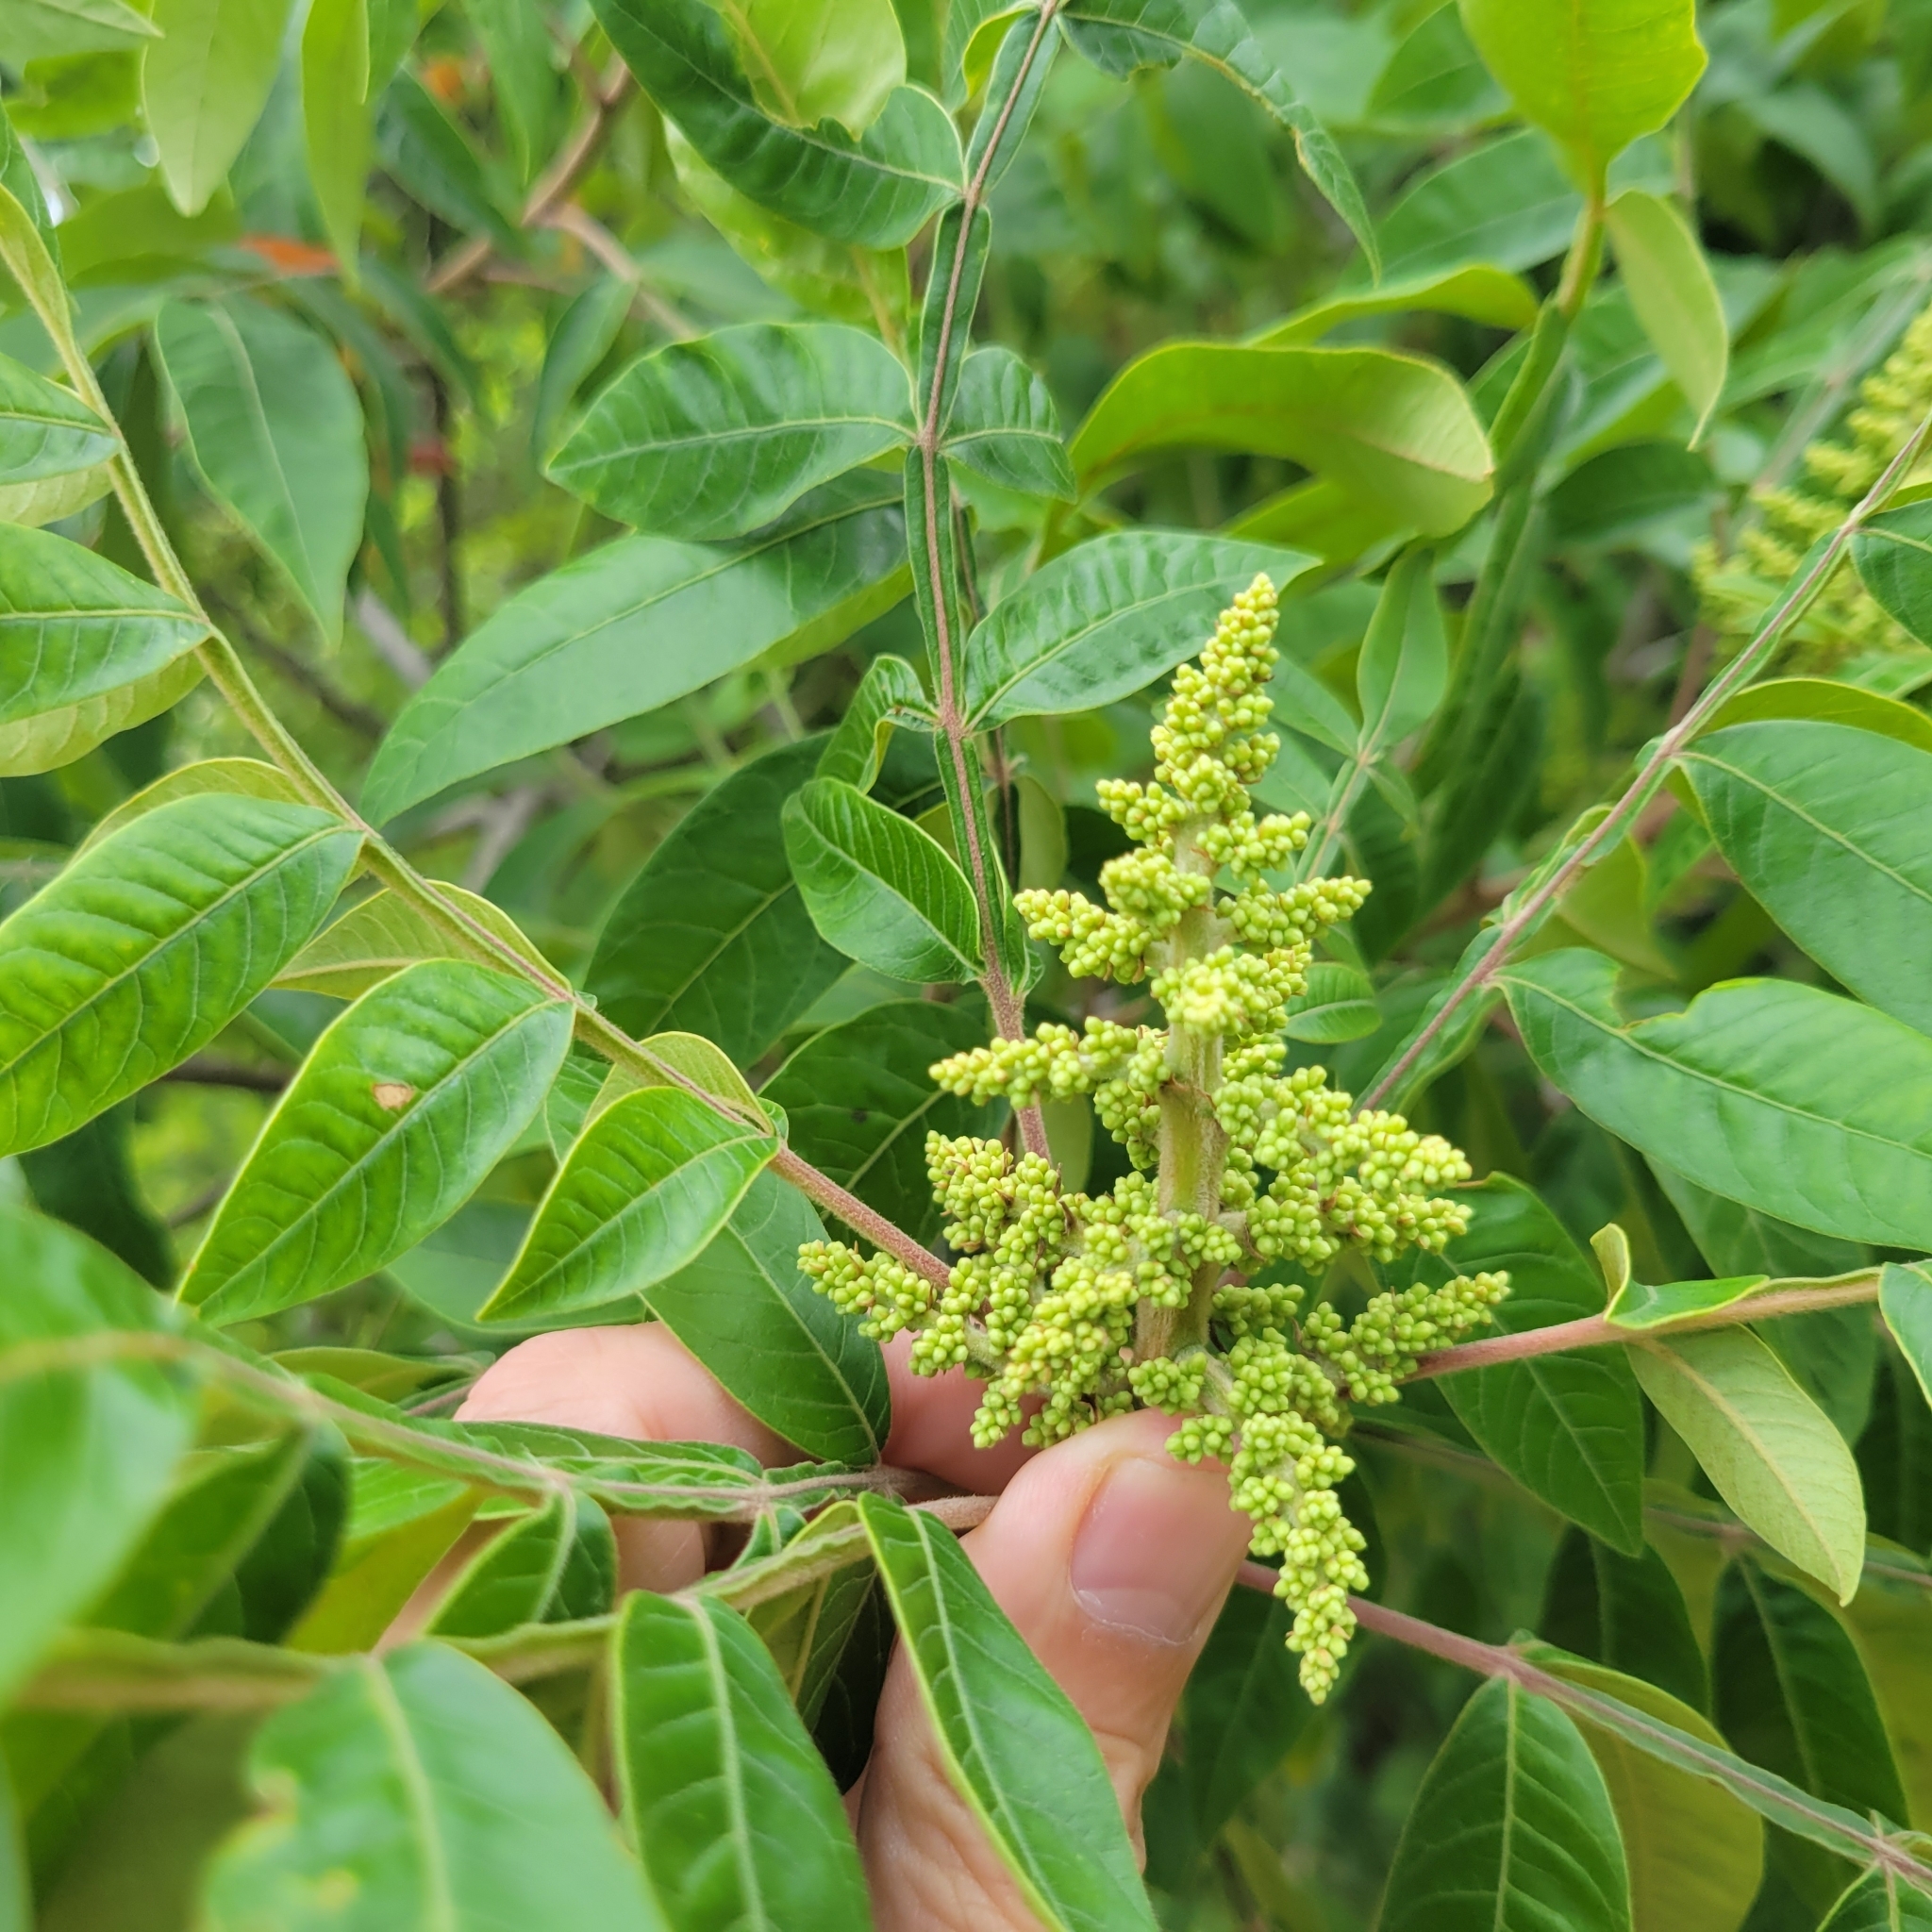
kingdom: Plantae
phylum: Tracheophyta
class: Magnoliopsida
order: Sapindales
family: Anacardiaceae
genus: Rhus
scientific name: Rhus copallina
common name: Shining sumac
